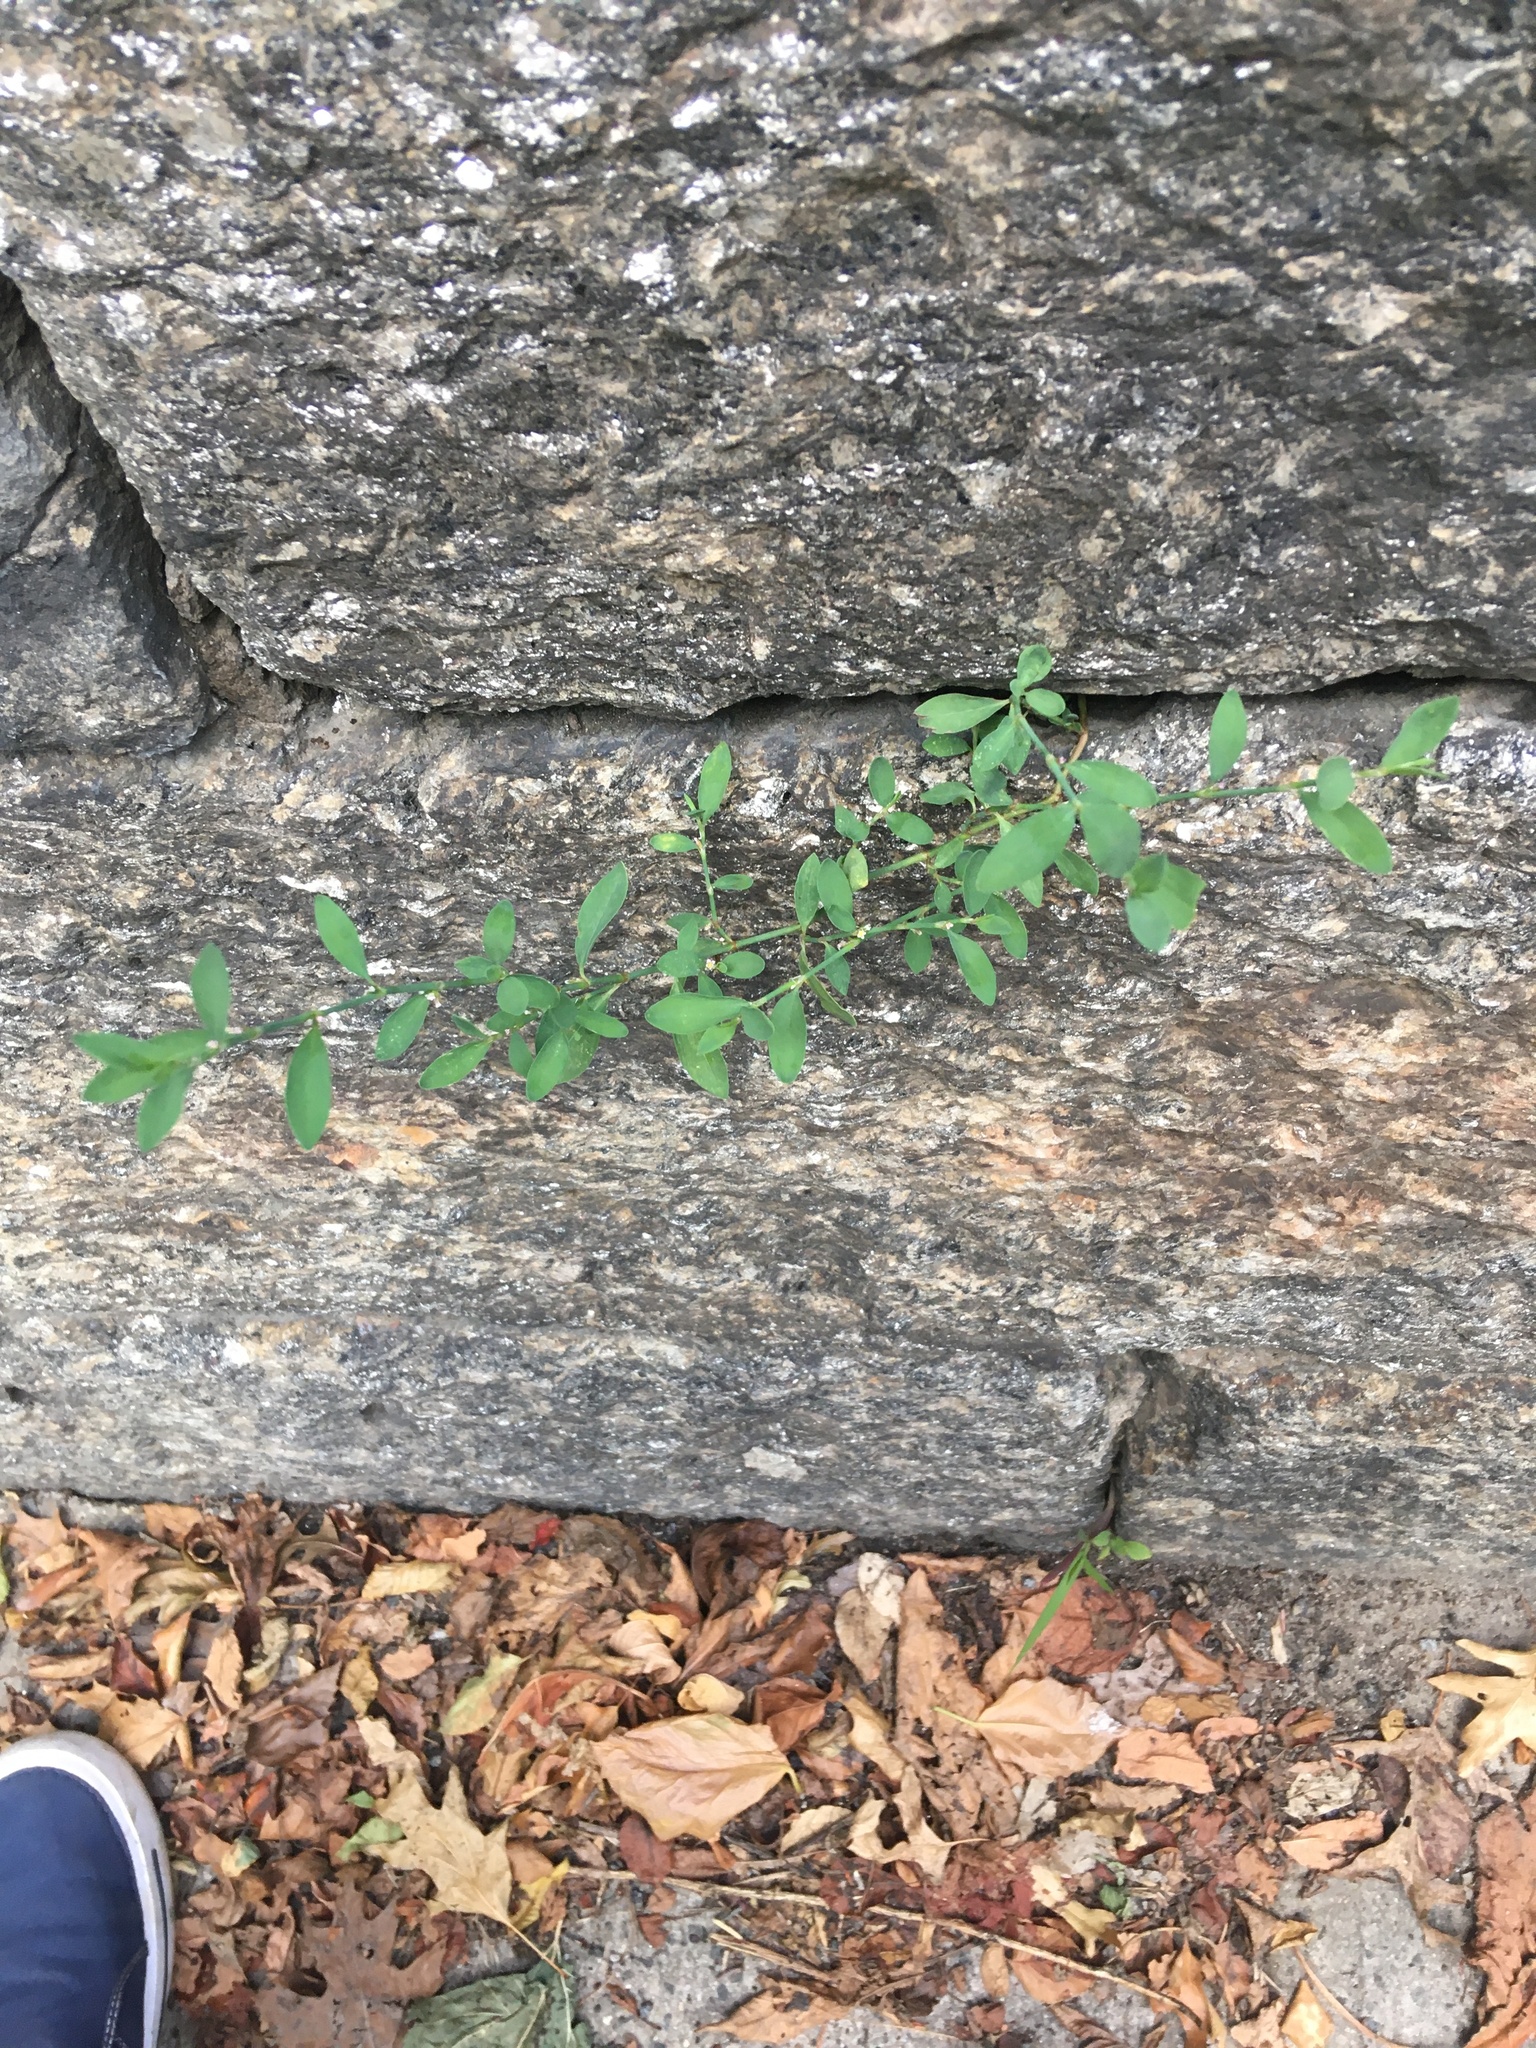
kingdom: Plantae
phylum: Tracheophyta
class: Magnoliopsida
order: Caryophyllales
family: Polygonaceae
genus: Polygonum
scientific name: Polygonum aviculare
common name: Prostrate knotweed
